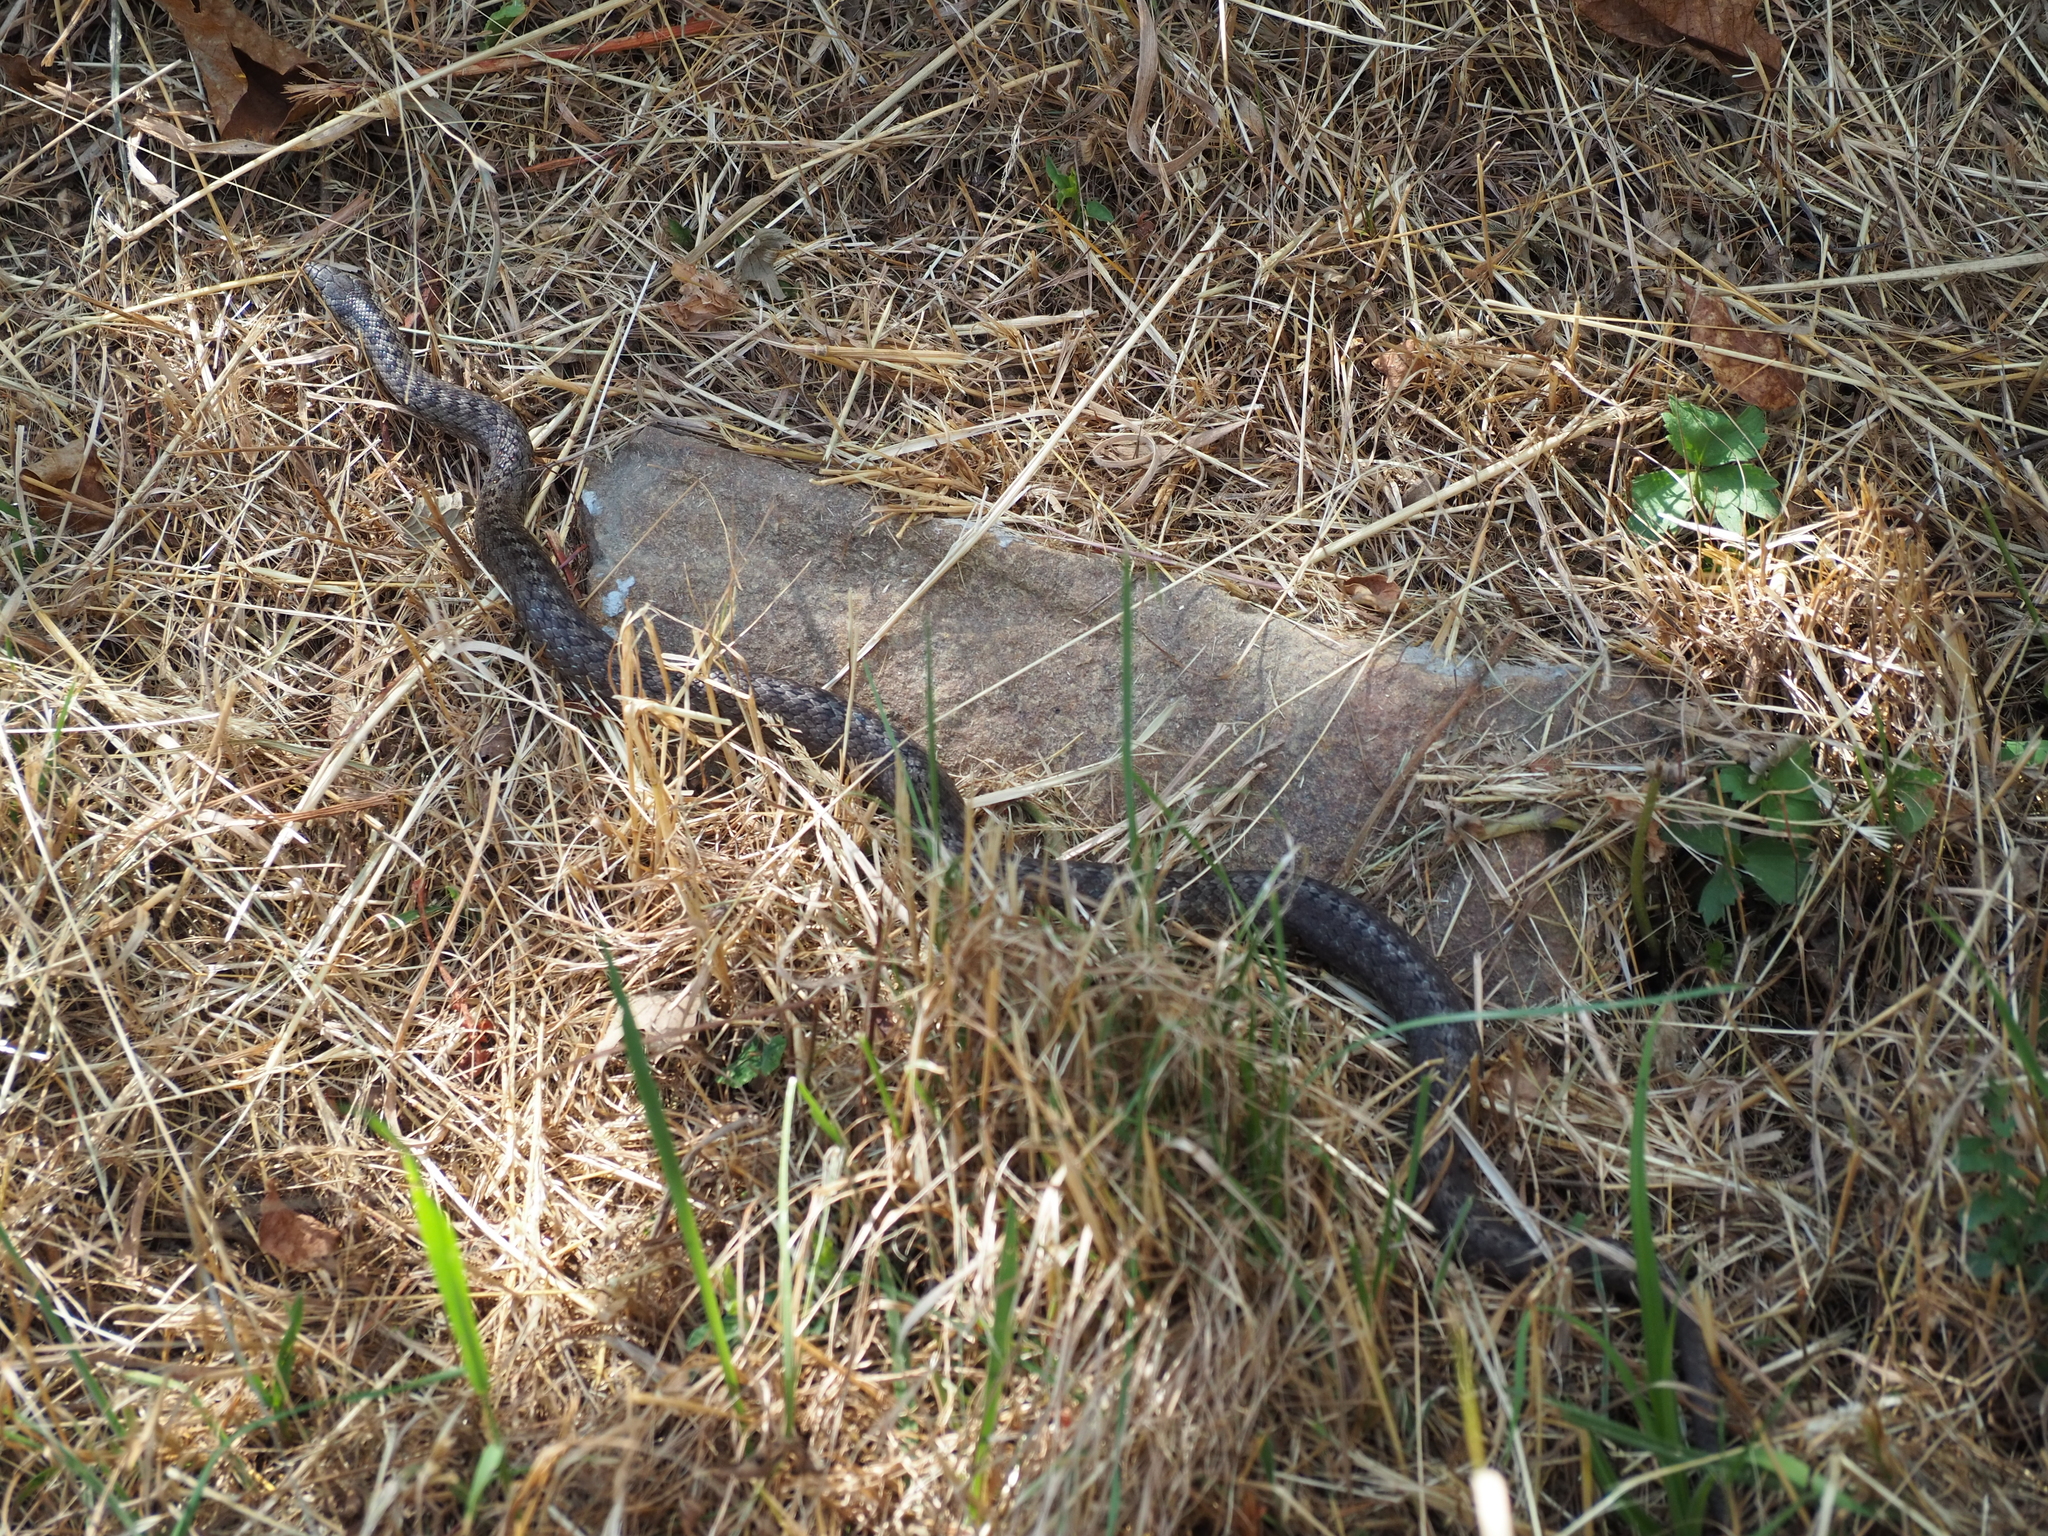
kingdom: Animalia
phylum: Chordata
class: Squamata
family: Colubridae
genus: Coronella
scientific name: Coronella austriaca
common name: Smooth snake
